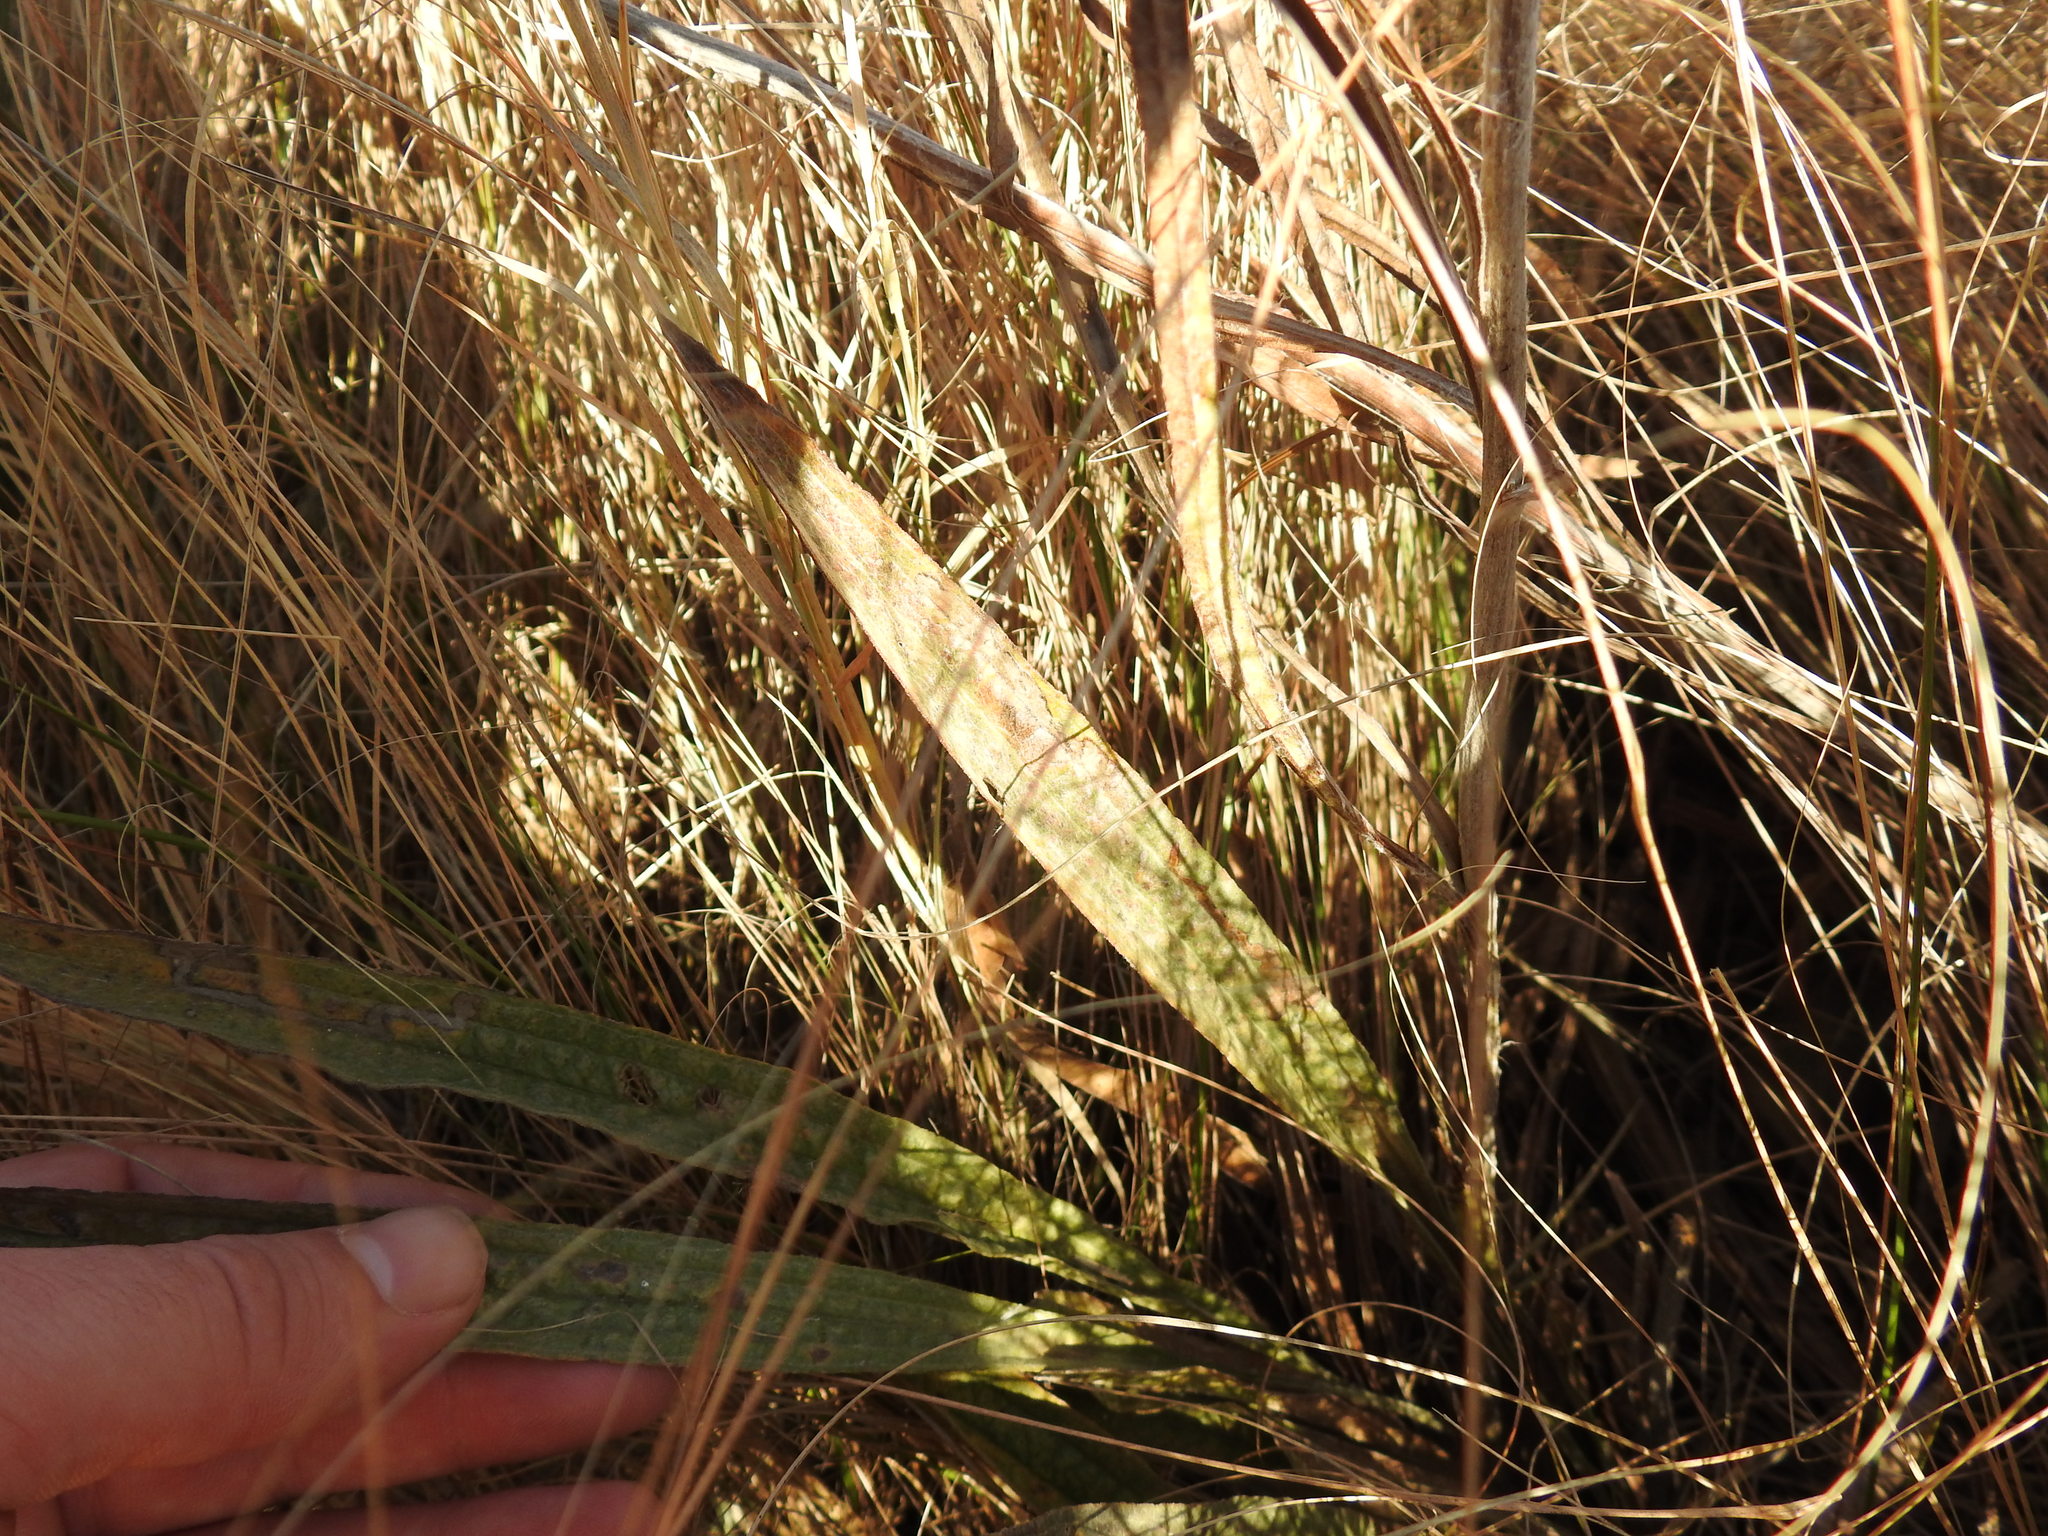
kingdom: Plantae
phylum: Tracheophyta
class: Magnoliopsida
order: Asterales
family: Asteraceae
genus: Helichrysum
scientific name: Helichrysum nudifolium
